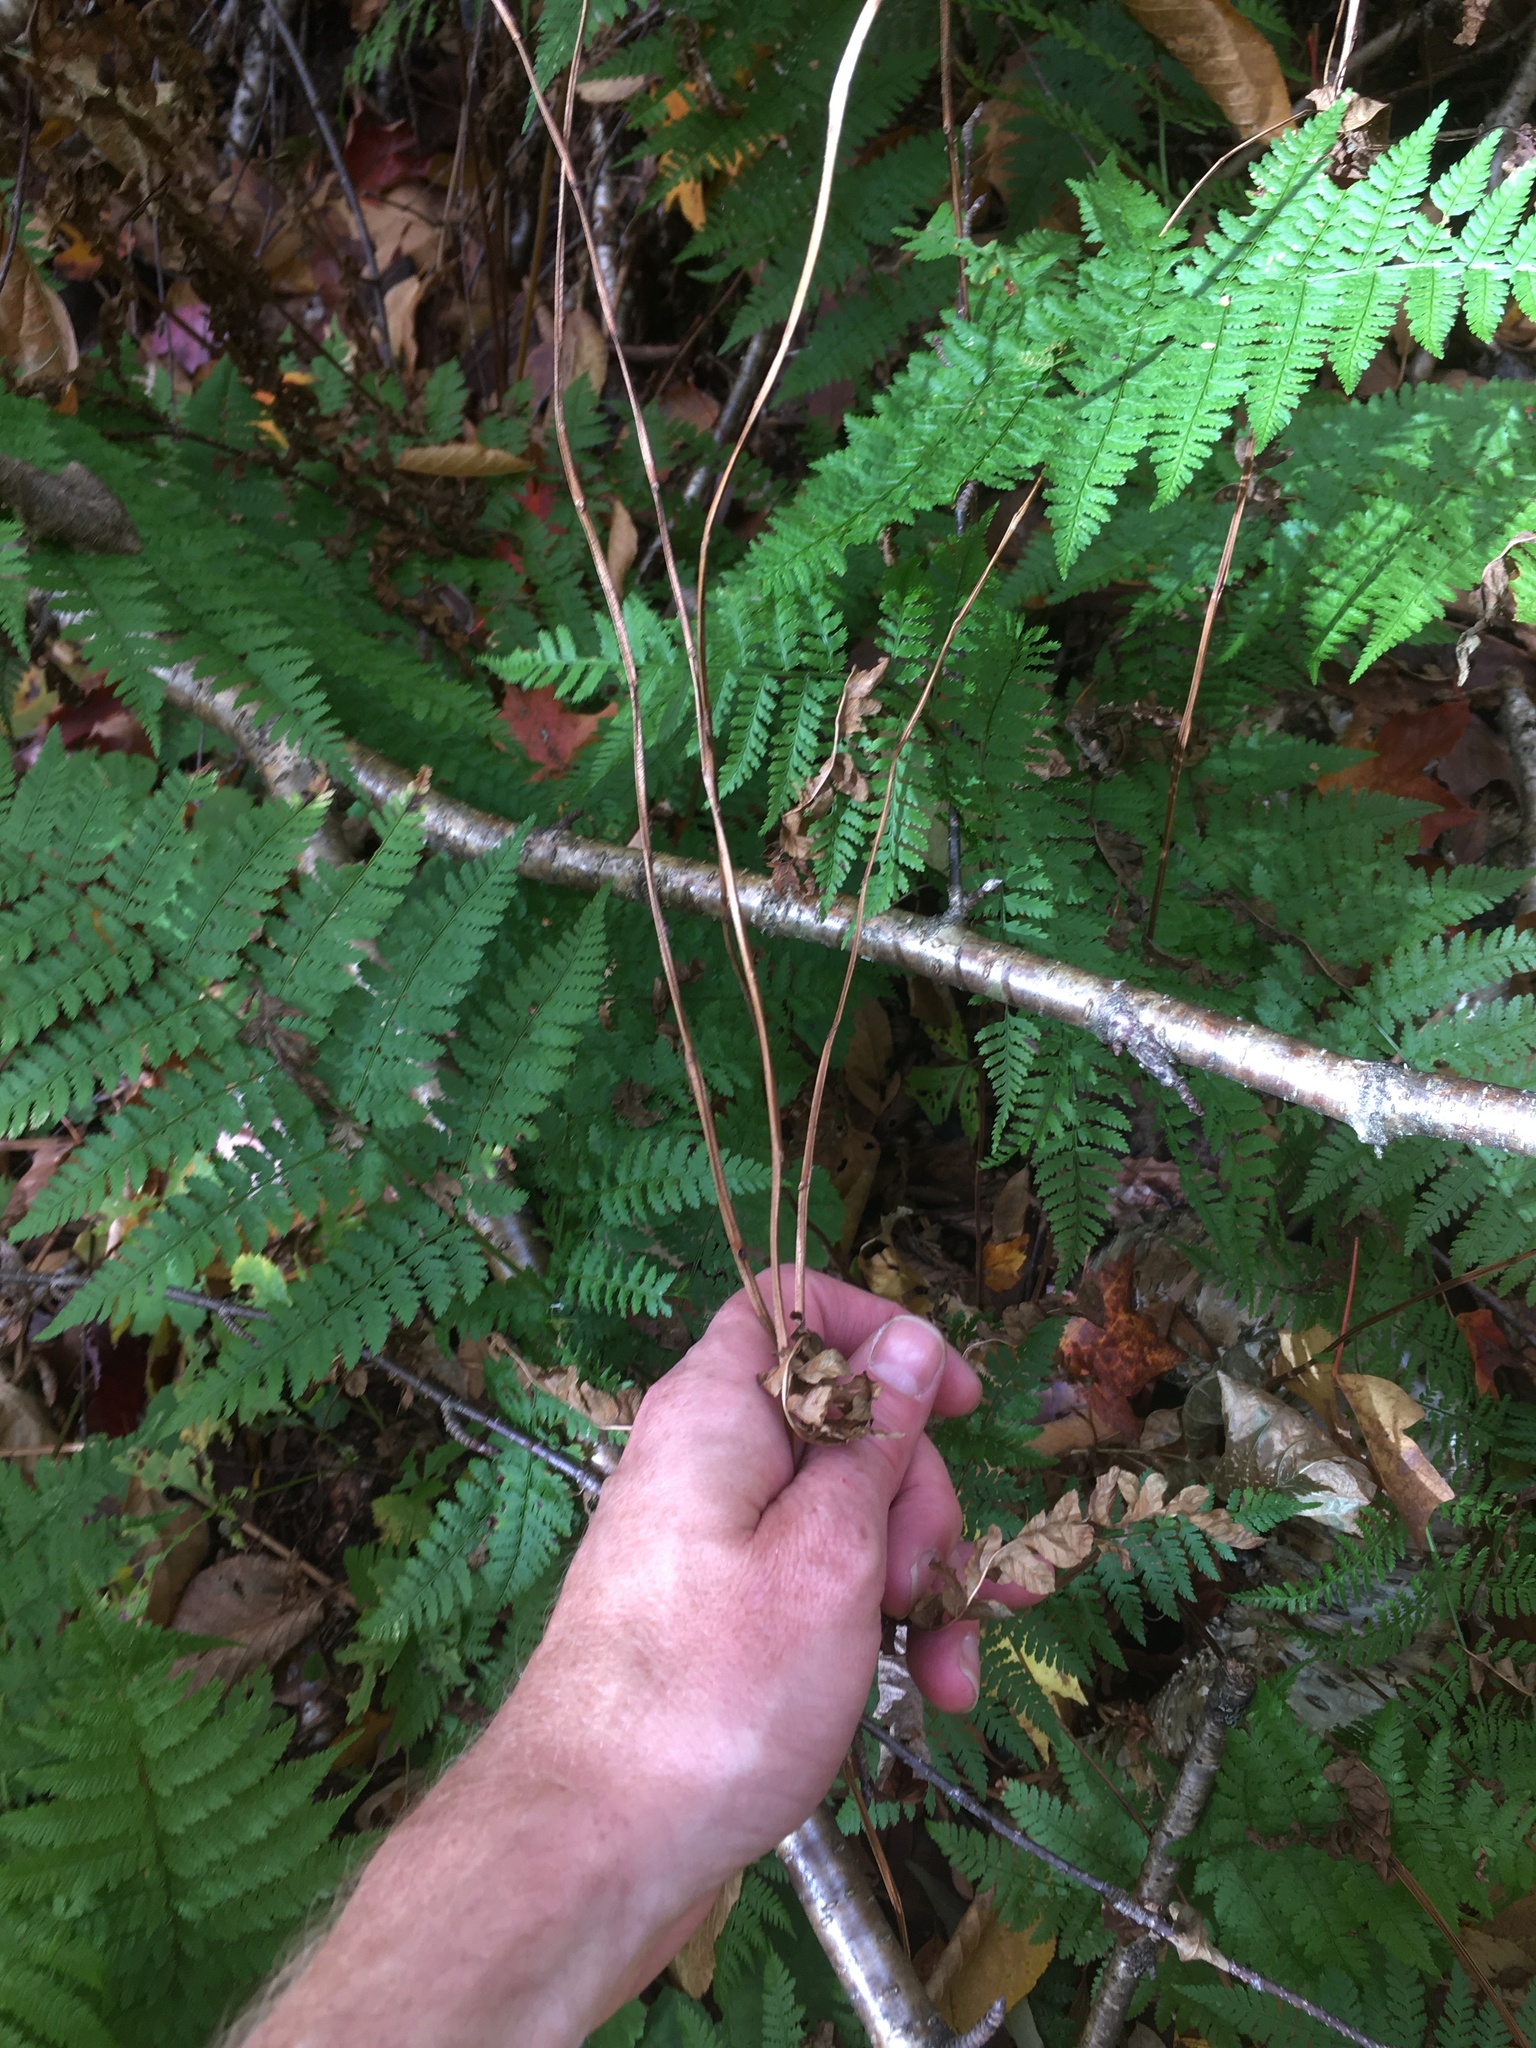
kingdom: Plantae
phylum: Tracheophyta
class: Polypodiopsida
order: Polypodiales
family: Onocleaceae
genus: Matteuccia
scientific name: Matteuccia struthiopteris
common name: Ostrich fern
